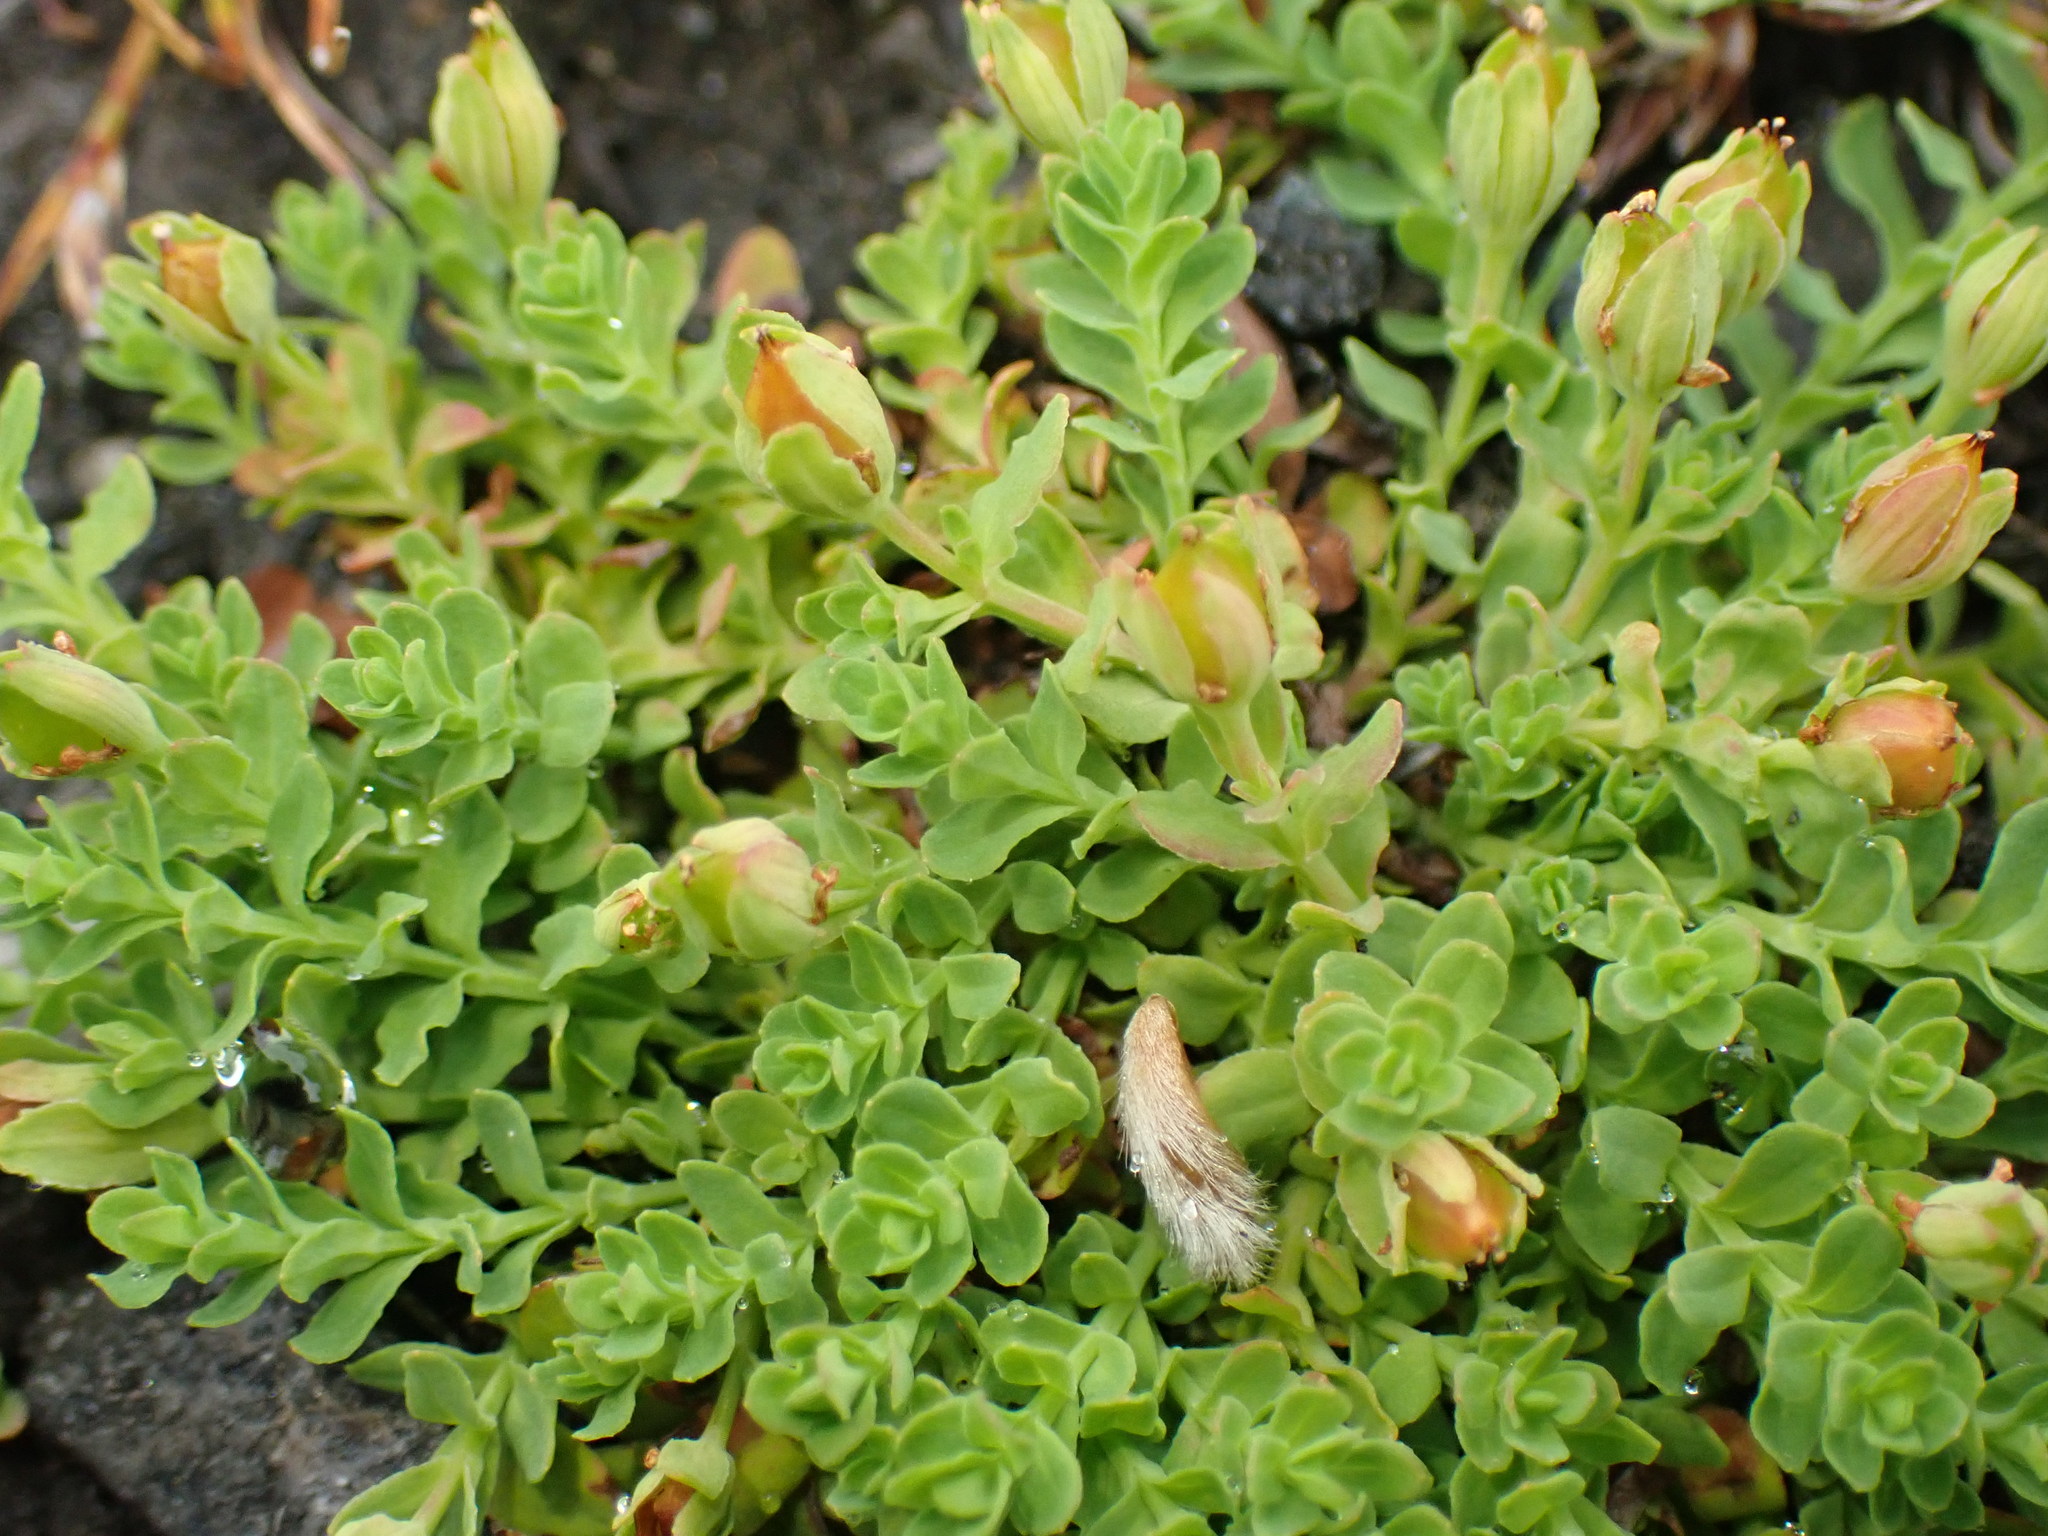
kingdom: Plantae
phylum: Tracheophyta
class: Magnoliopsida
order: Malpighiales
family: Hypericaceae
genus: Hypericum
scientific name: Hypericum japonicum
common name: Matted st. john's-wort
